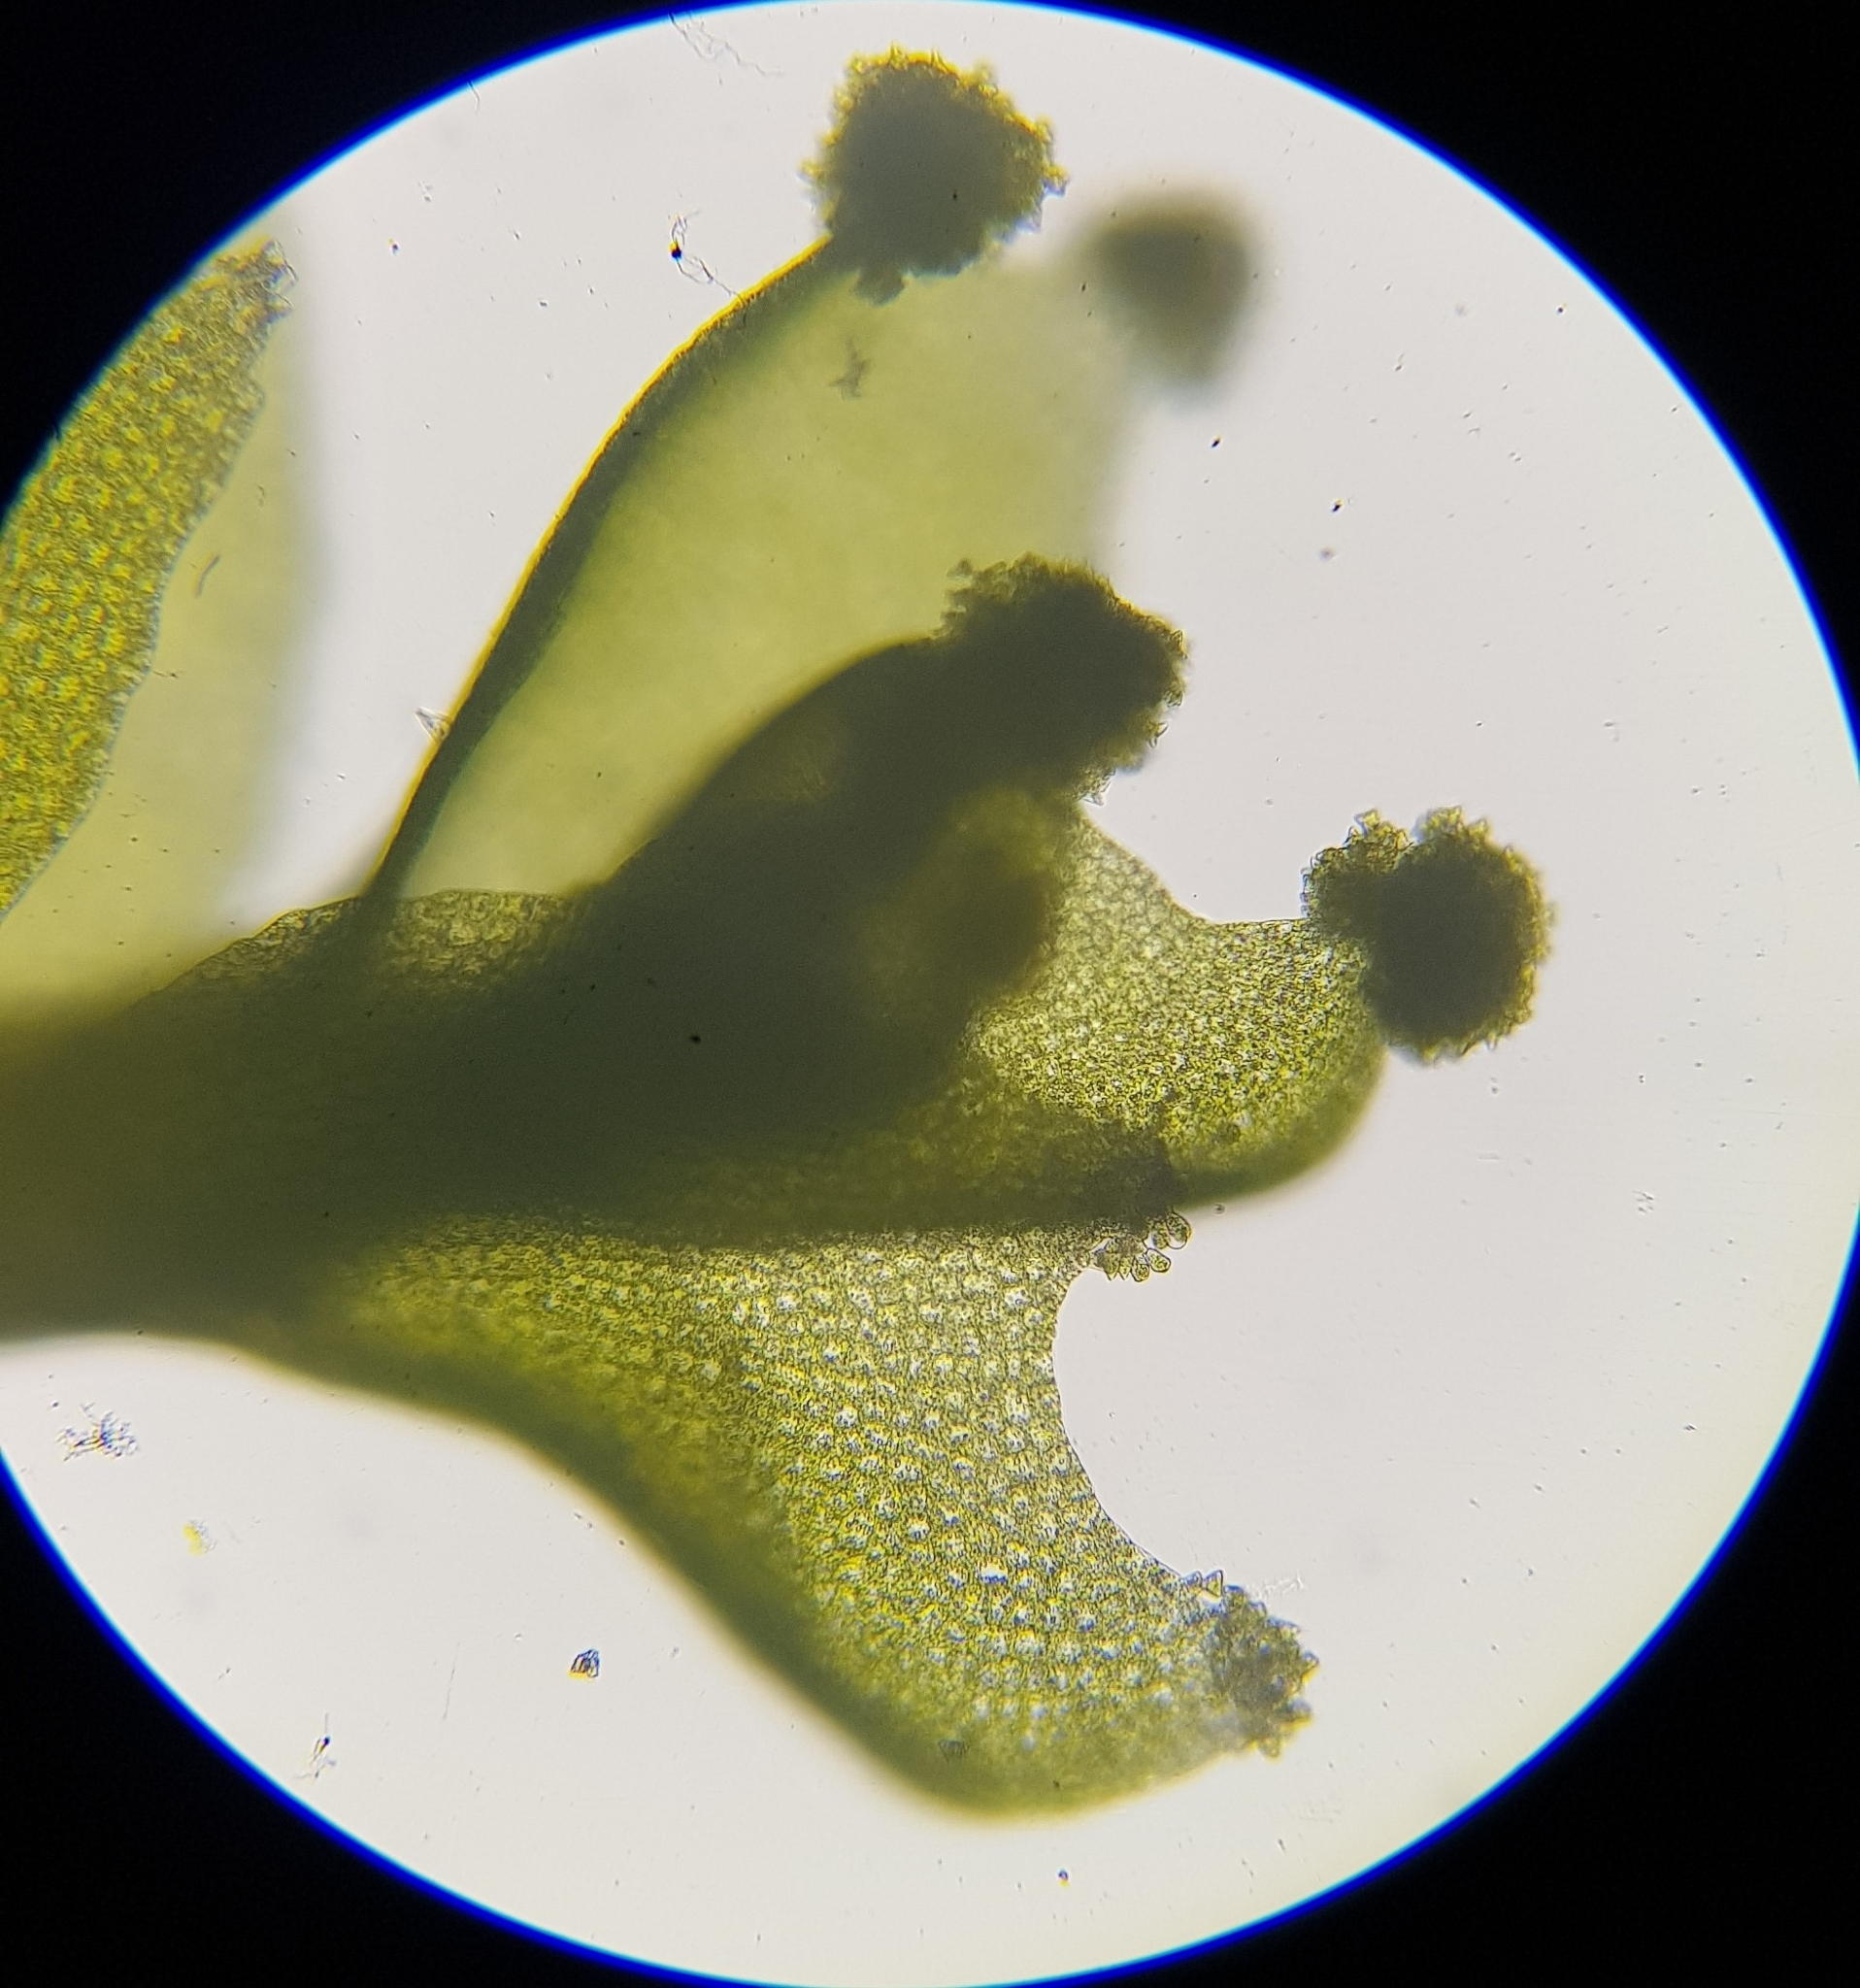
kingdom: Plantae
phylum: Marchantiophyta
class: Jungermanniopsida
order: Jungermanniales
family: Lophoziaceae
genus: Lophozia
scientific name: Lophozia ventricosa
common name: Tumid notchwort
